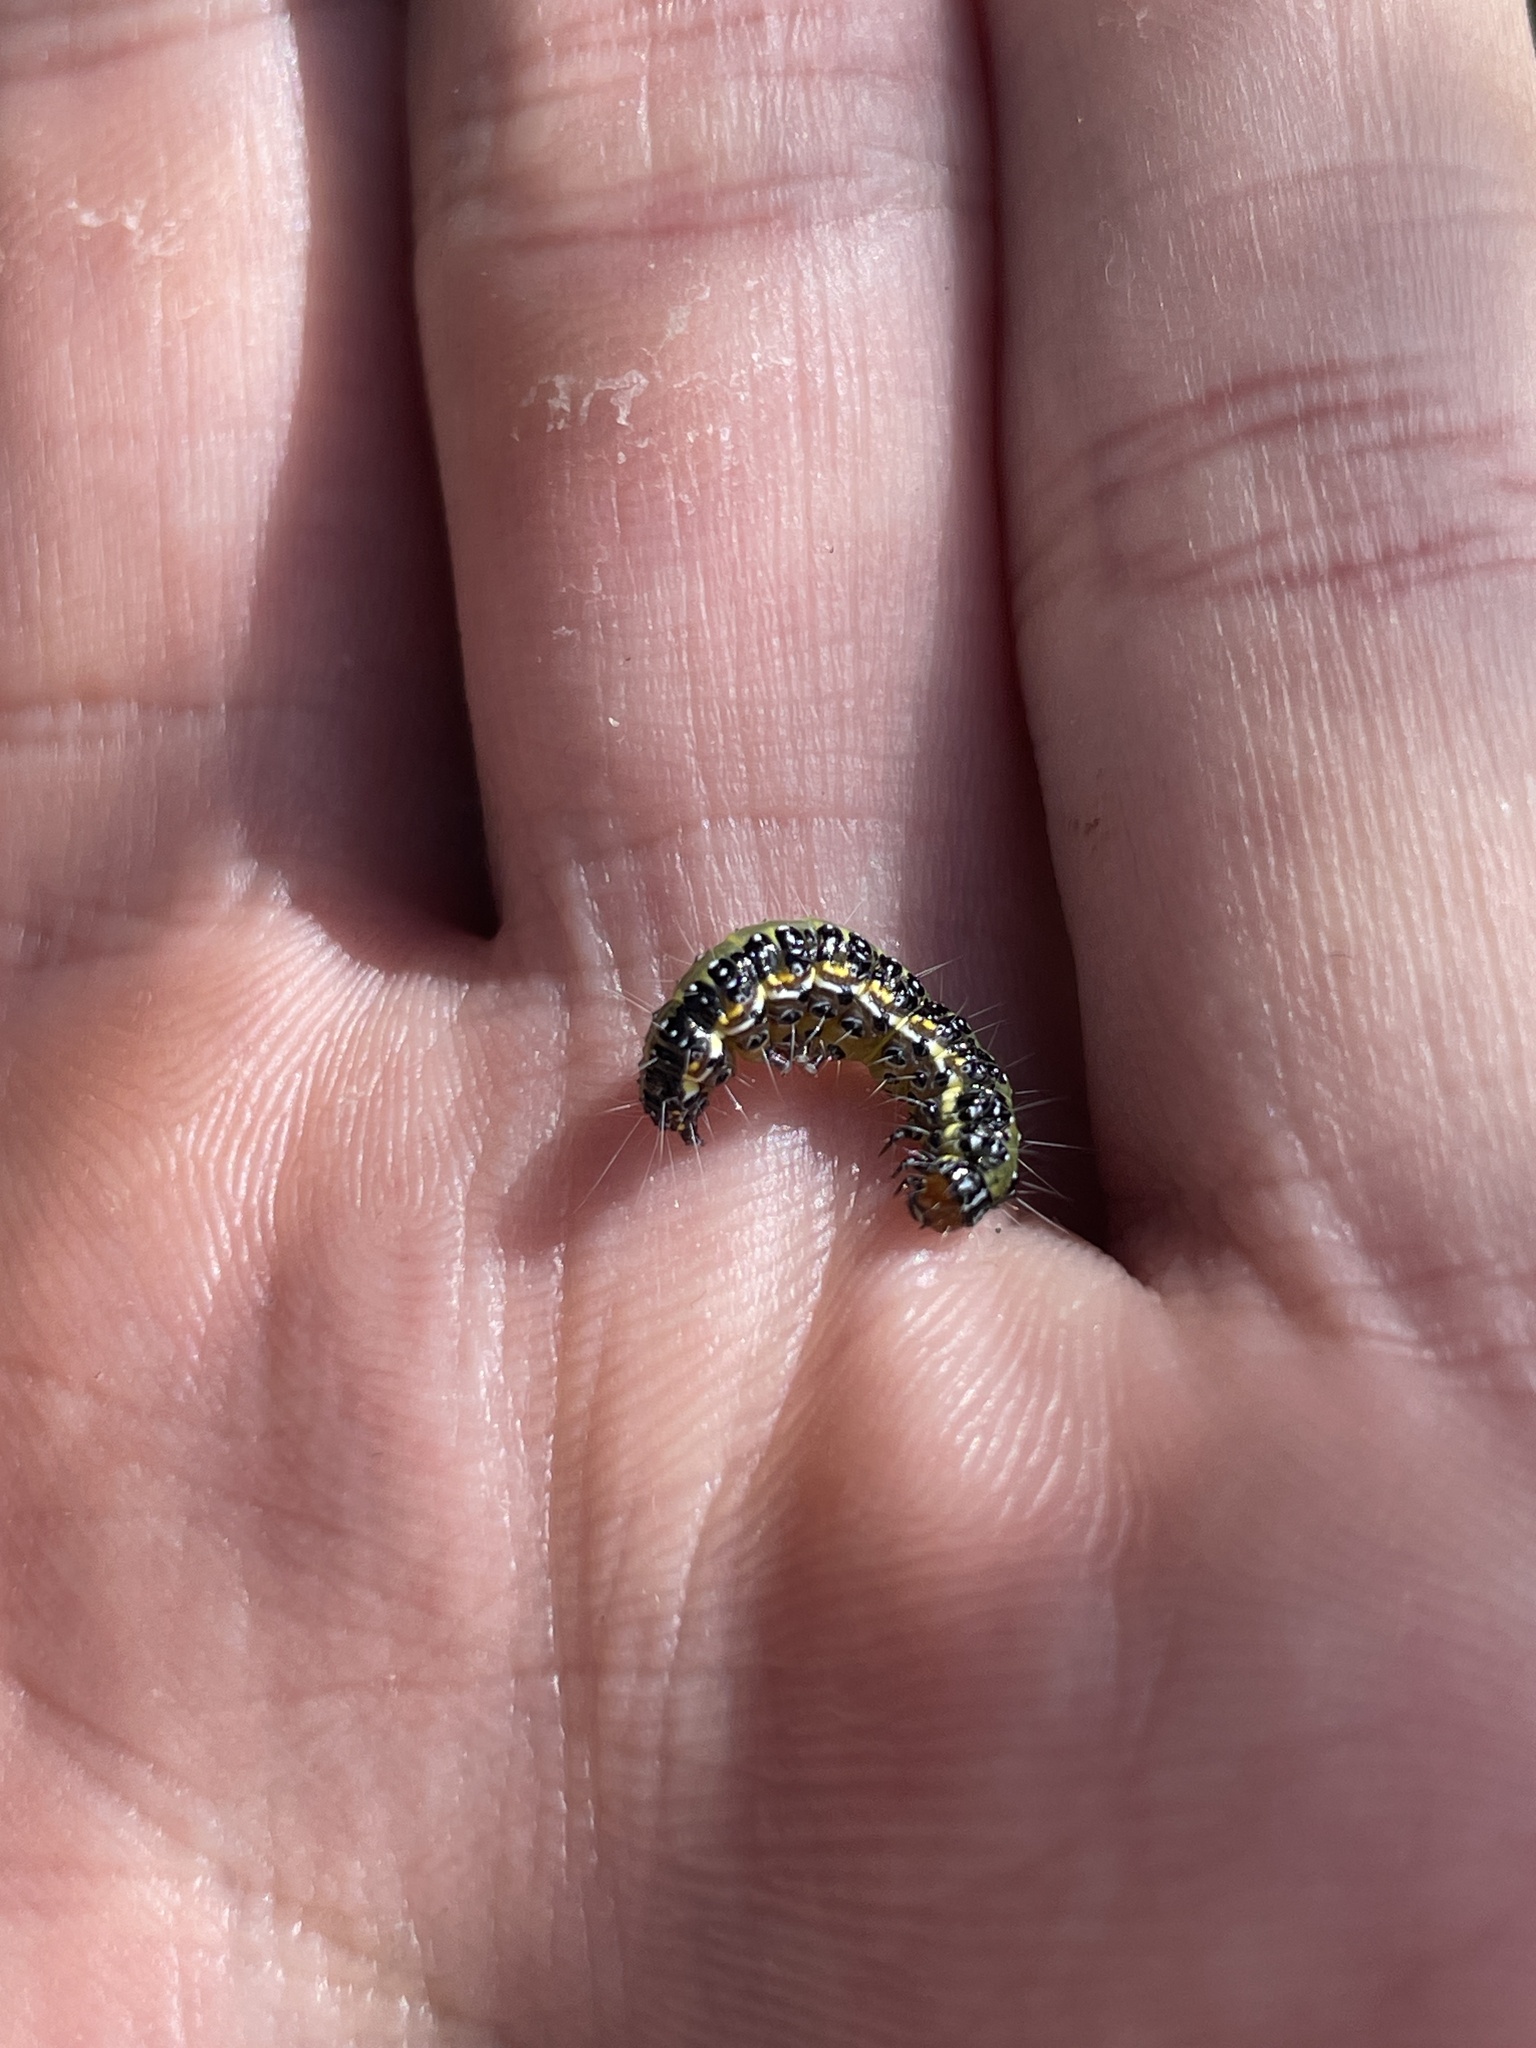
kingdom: Animalia
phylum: Arthropoda
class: Insecta
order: Lepidoptera
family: Crambidae
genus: Uresiphita
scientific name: Uresiphita
